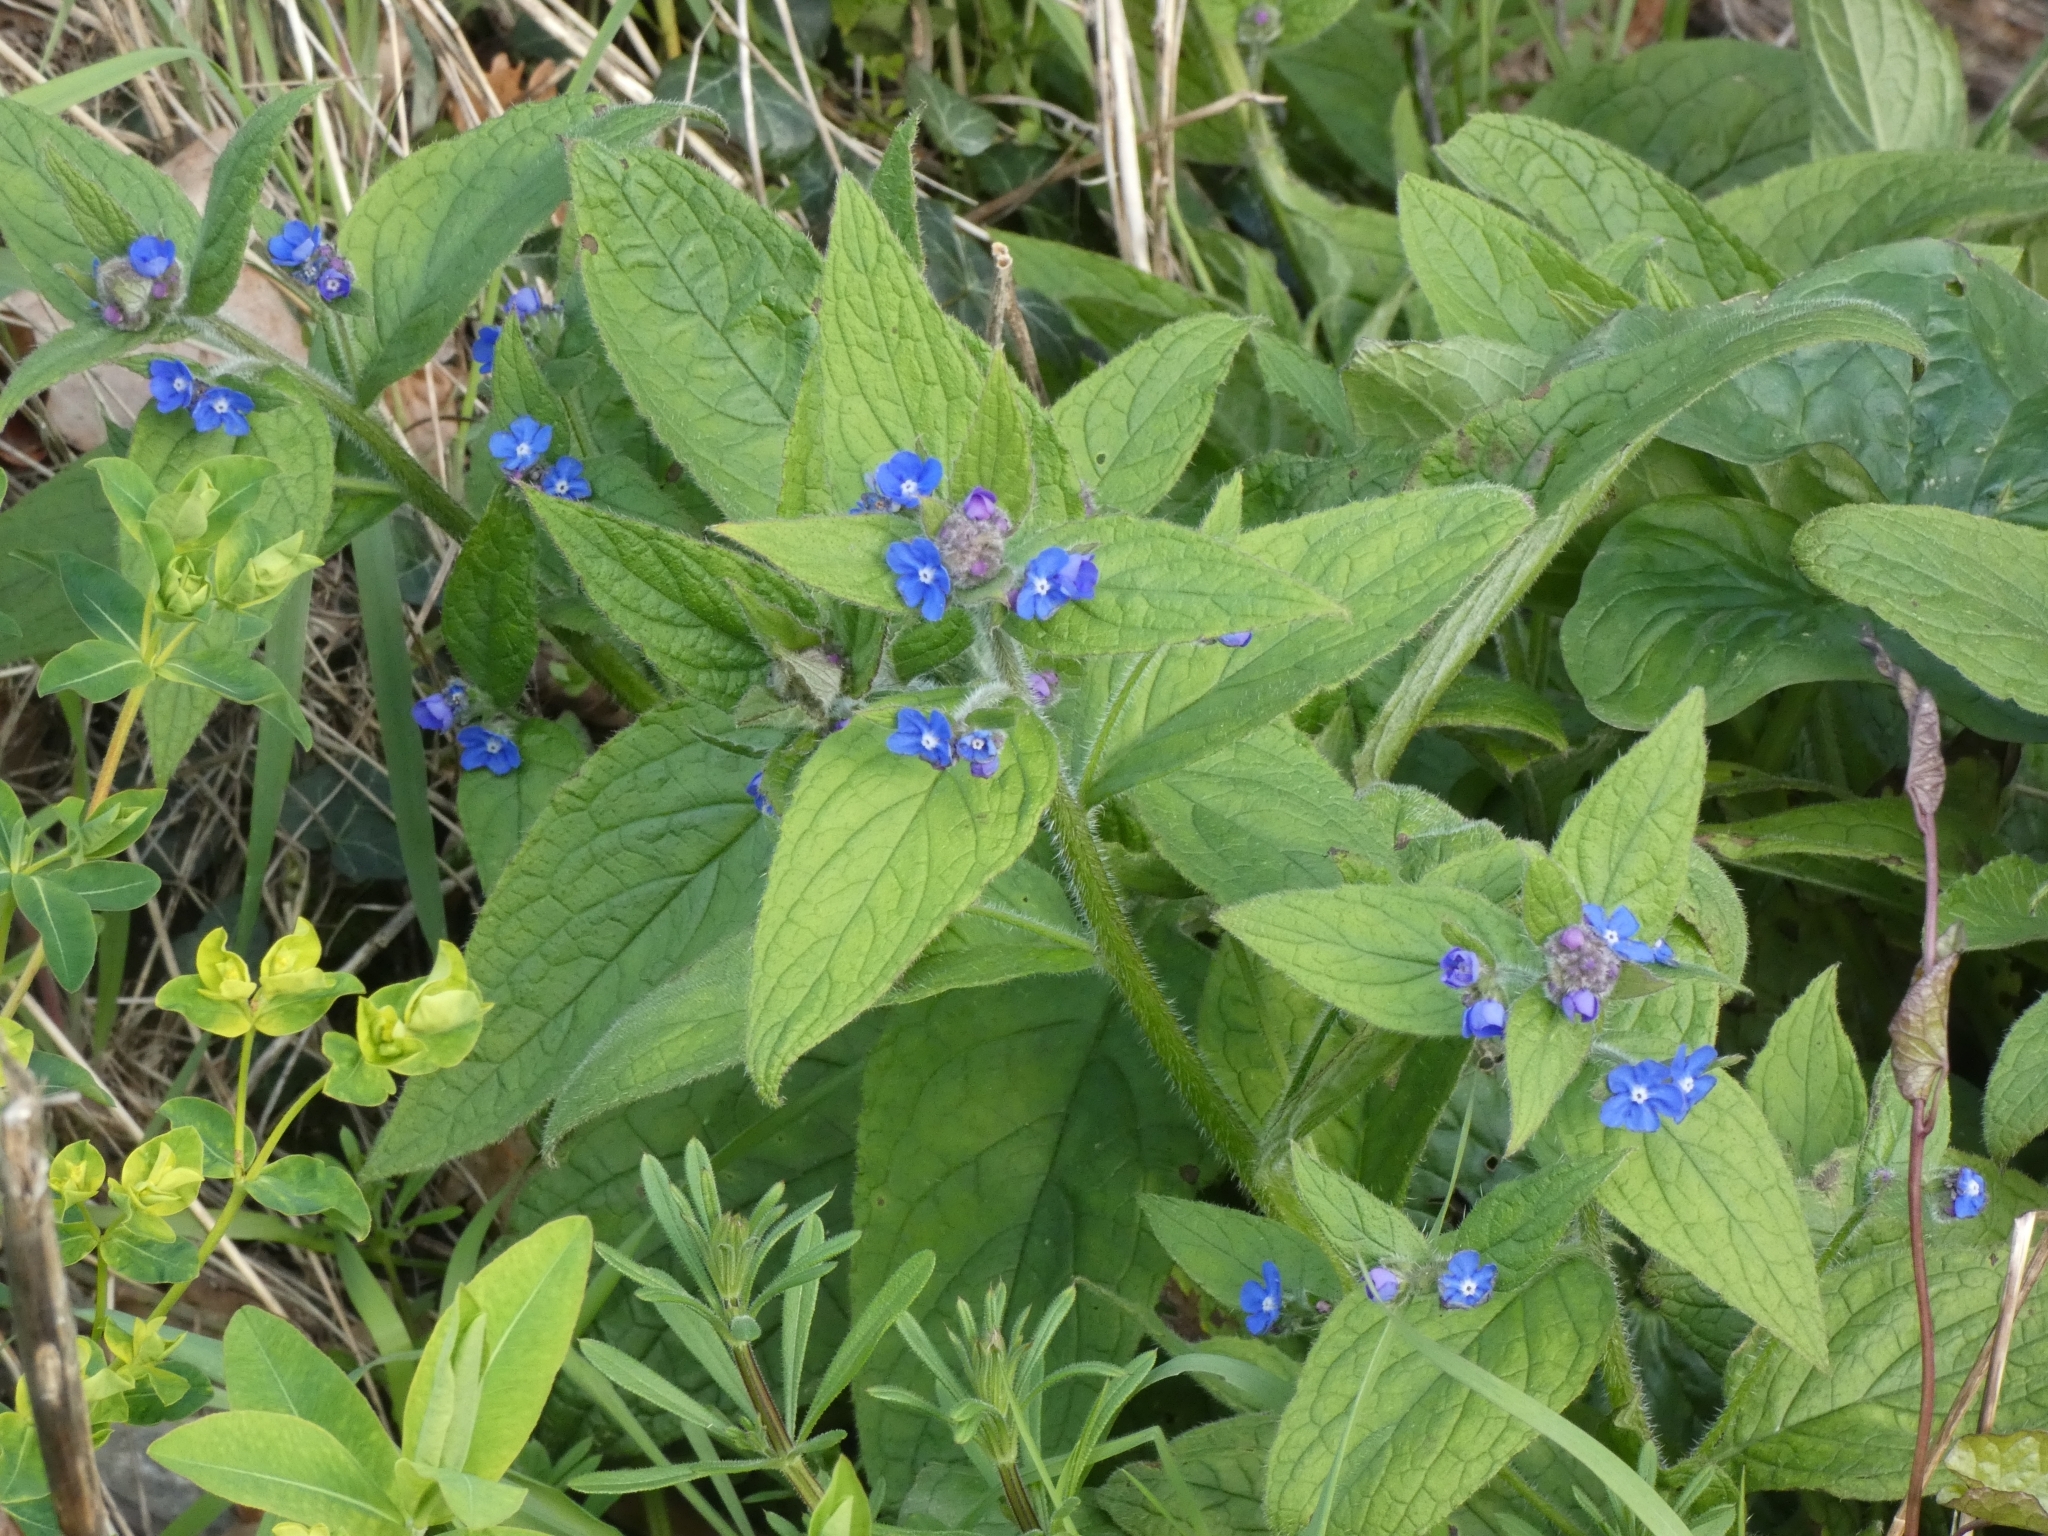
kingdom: Plantae
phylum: Tracheophyta
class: Magnoliopsida
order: Boraginales
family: Boraginaceae
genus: Pentaglottis
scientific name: Pentaglottis sempervirens
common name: Green alkanet
